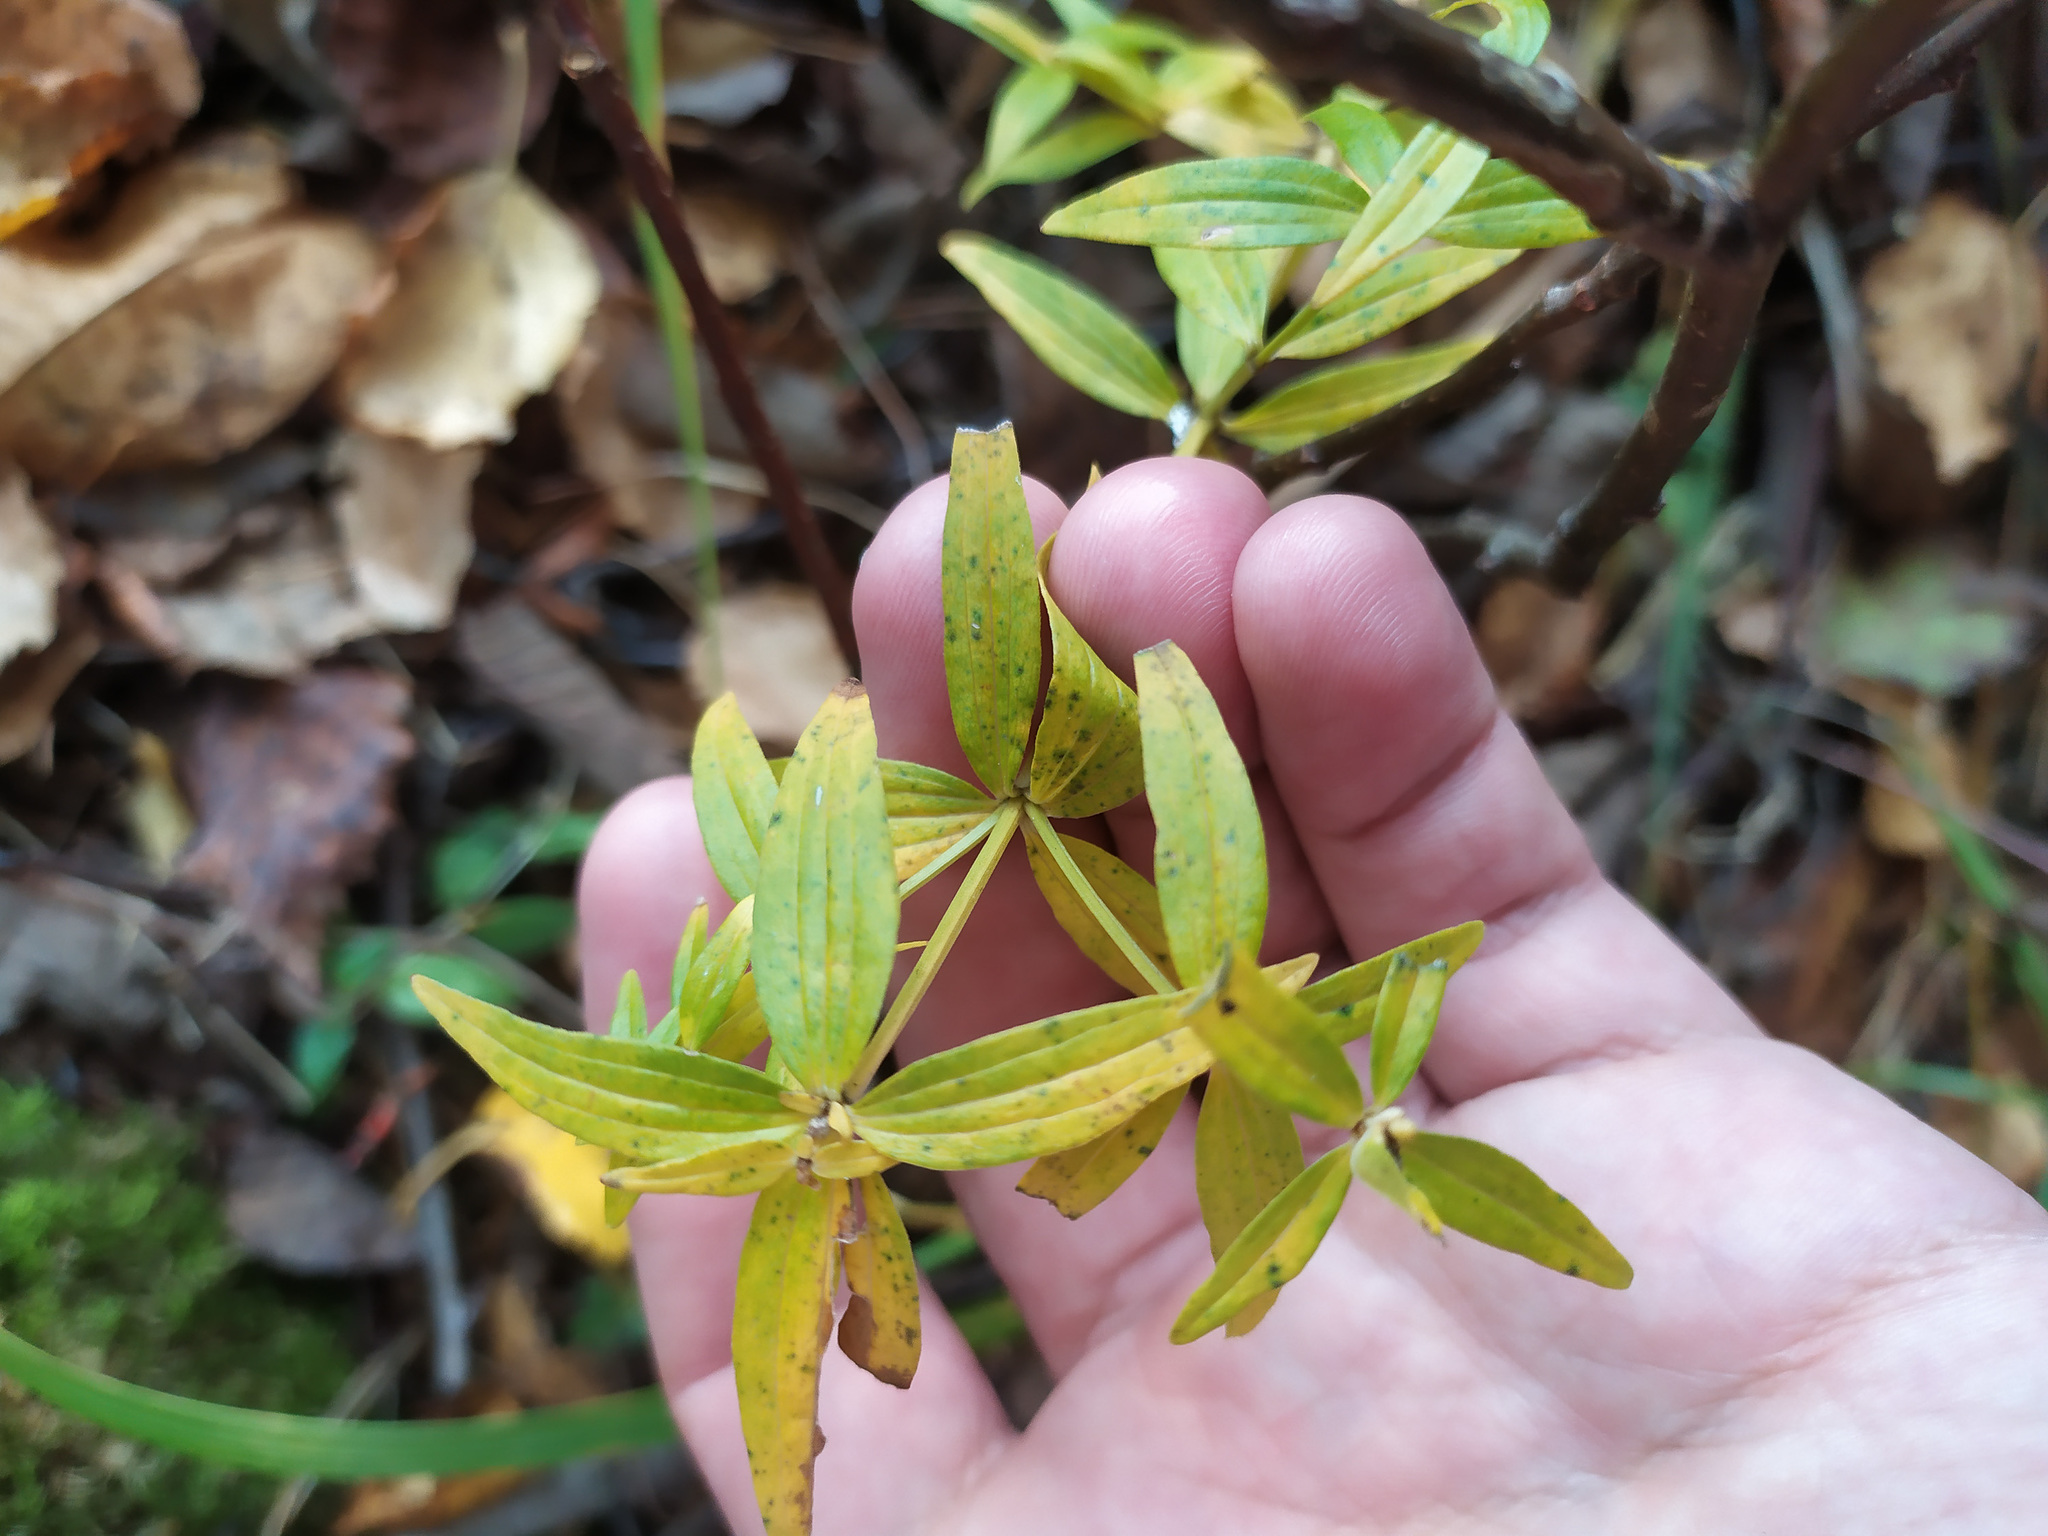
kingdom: Plantae
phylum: Tracheophyta
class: Magnoliopsida
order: Gentianales
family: Rubiaceae
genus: Galium
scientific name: Galium boreale
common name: Northern bedstraw
